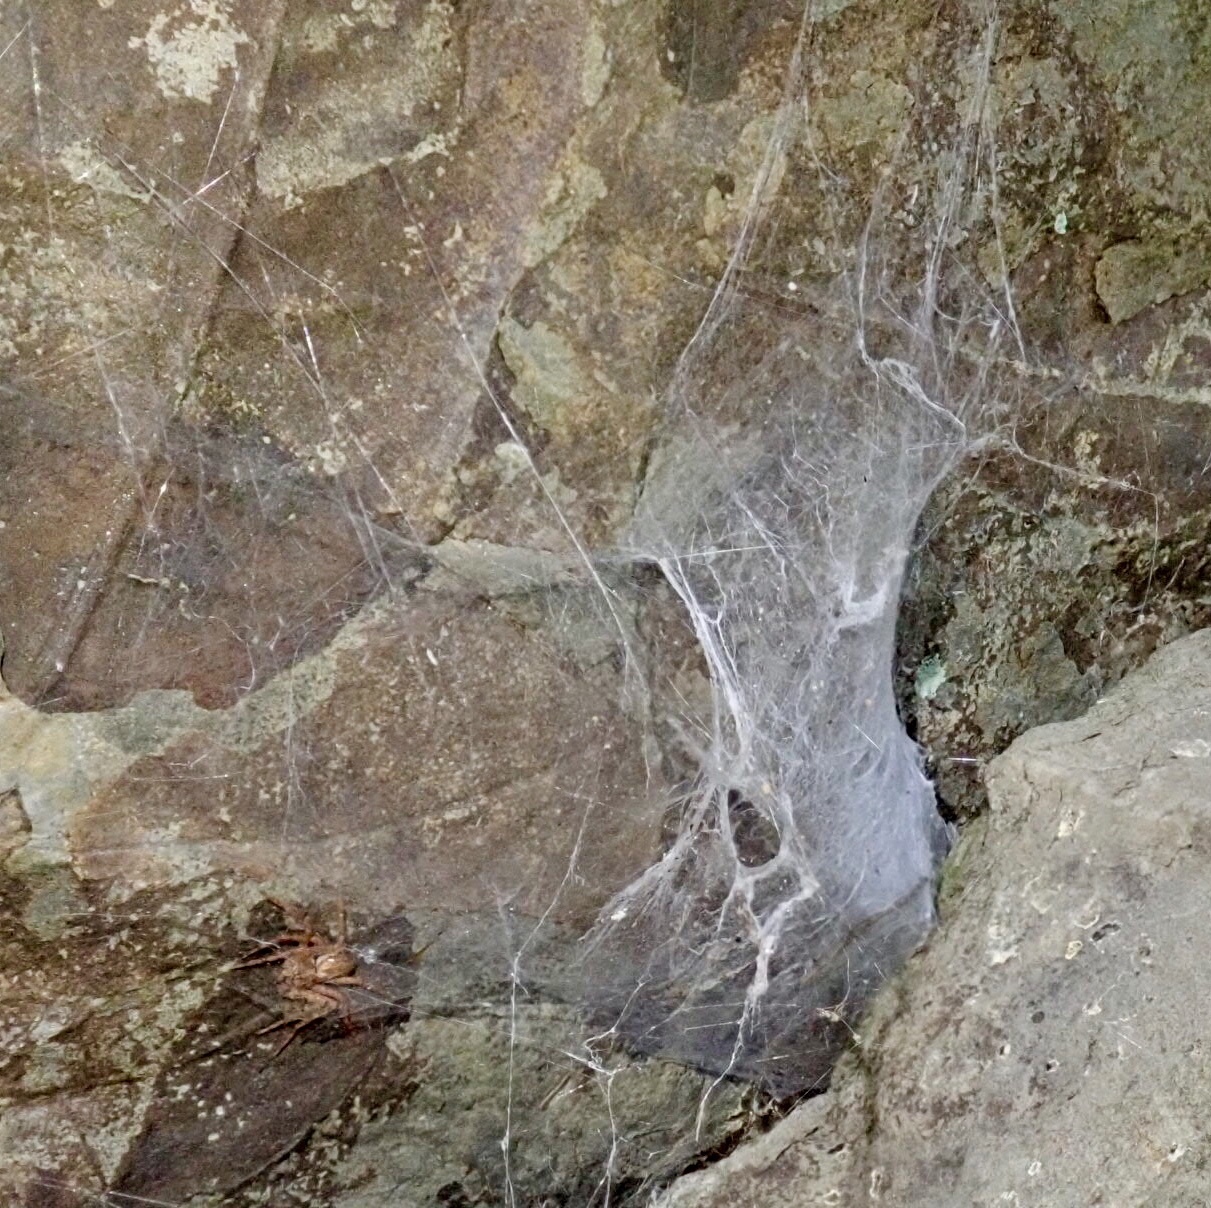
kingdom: Animalia
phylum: Arthropoda
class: Arachnida
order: Araneae
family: Agelenidae
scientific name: Agelenidae
